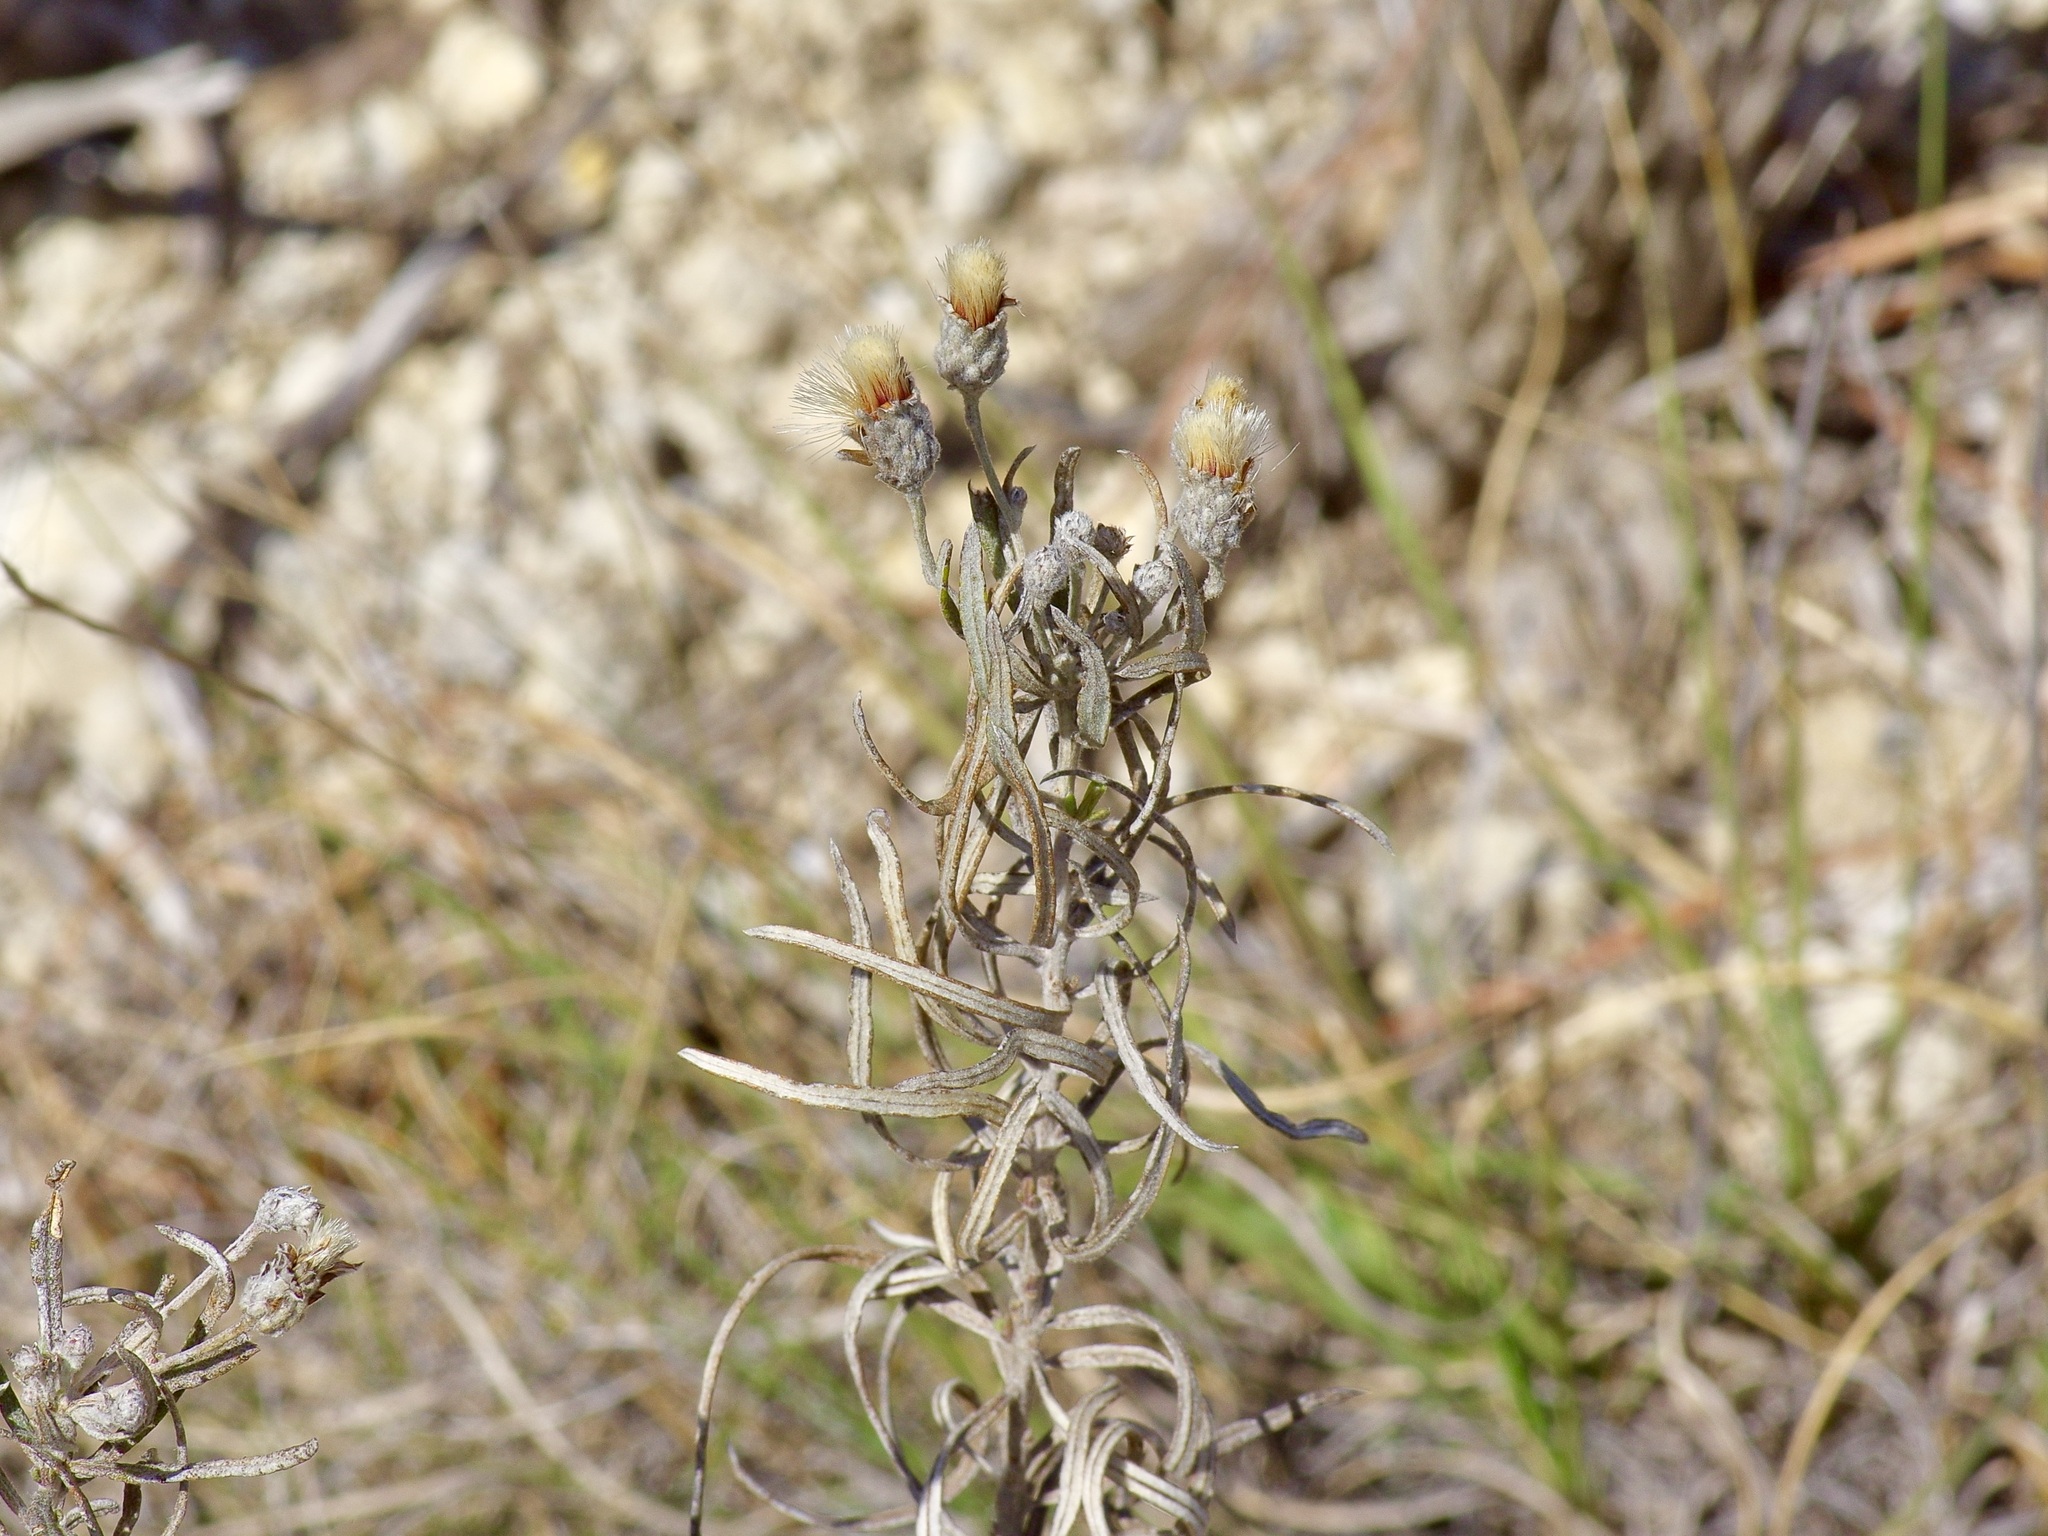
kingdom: Plantae
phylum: Tracheophyta
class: Magnoliopsida
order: Asterales
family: Asteraceae
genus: Vernonia
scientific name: Vernonia lindheimeri
